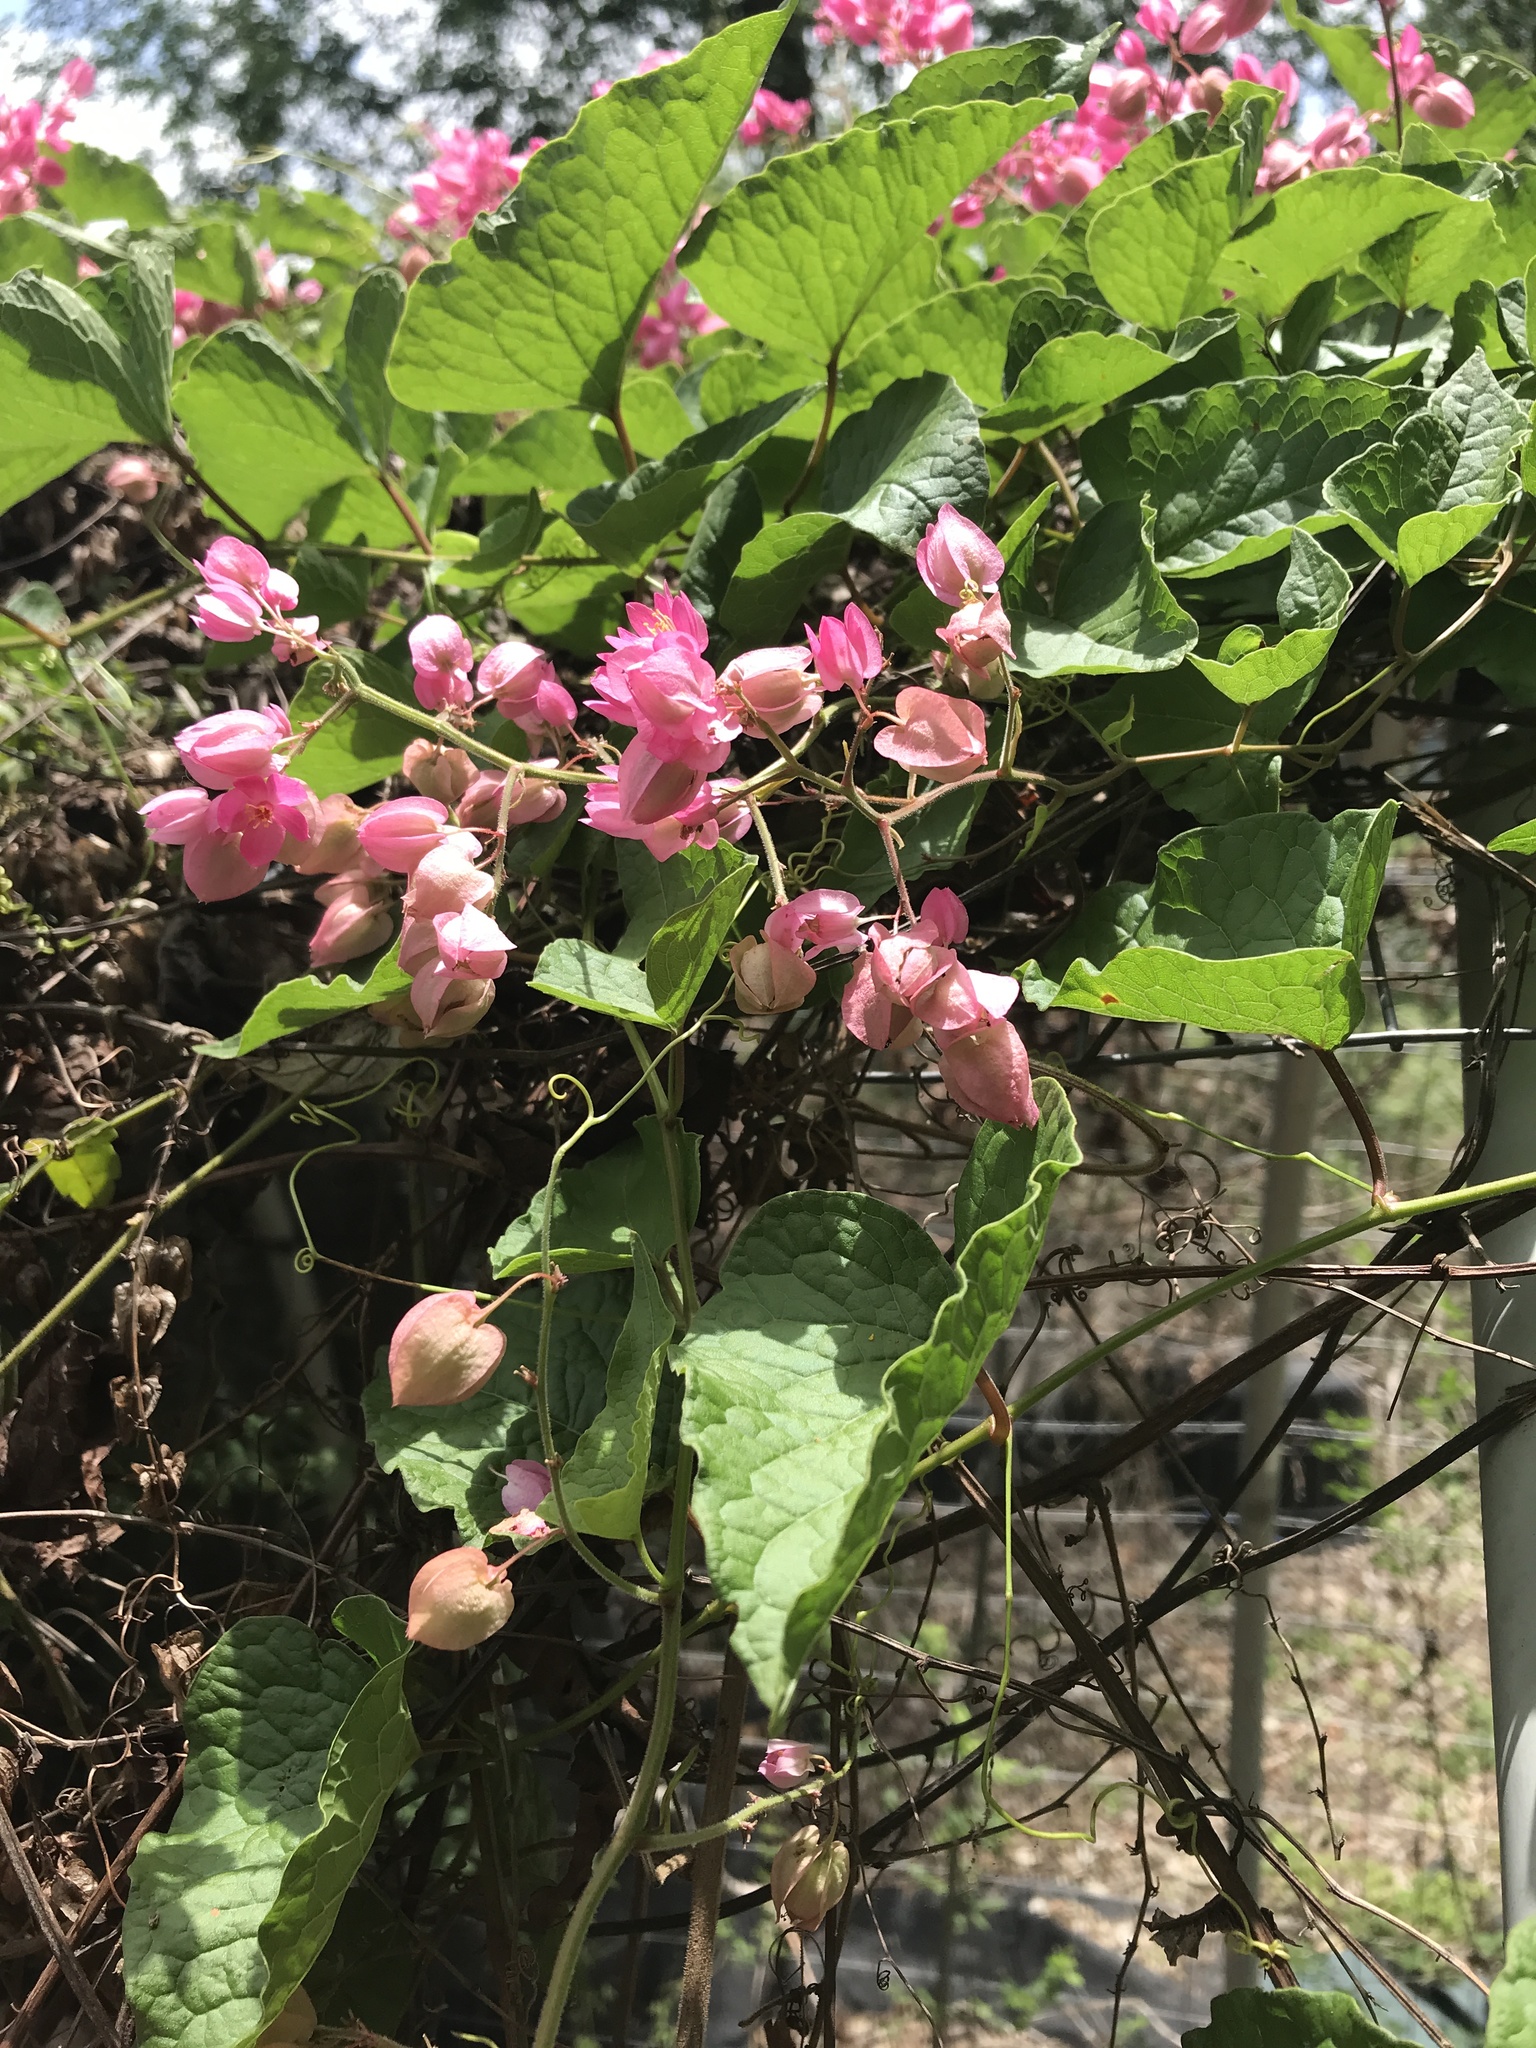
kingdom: Plantae
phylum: Tracheophyta
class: Magnoliopsida
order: Caryophyllales
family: Polygonaceae
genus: Antigonon
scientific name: Antigonon leptopus
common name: Coral vine
